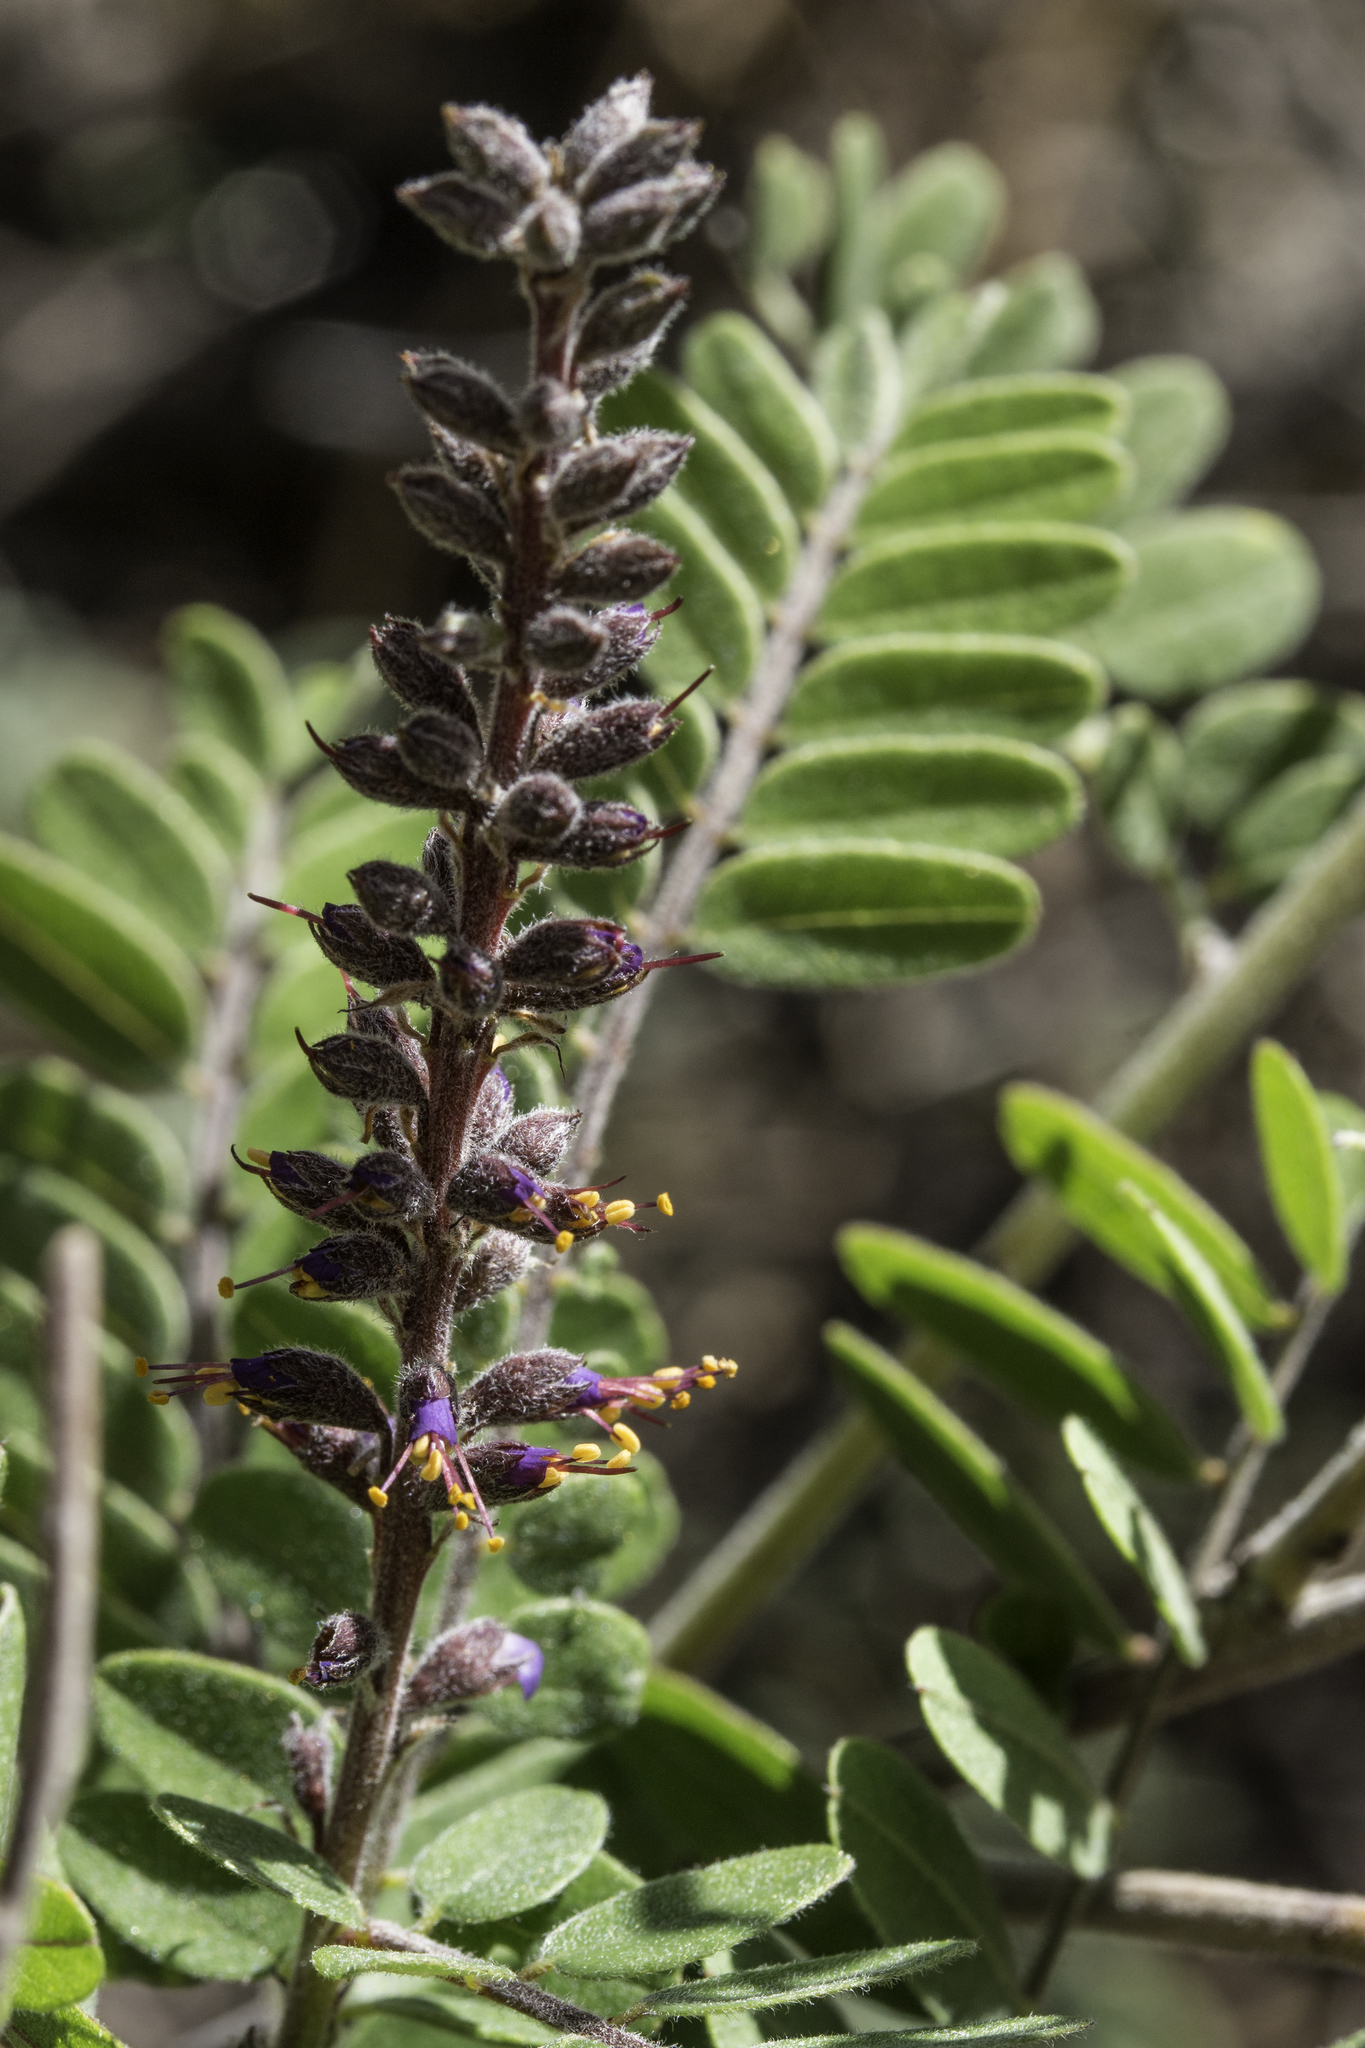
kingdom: Plantae
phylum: Tracheophyta
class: Magnoliopsida
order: Fabales
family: Fabaceae
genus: Amorpha
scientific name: Amorpha canescens
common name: Leadplant
